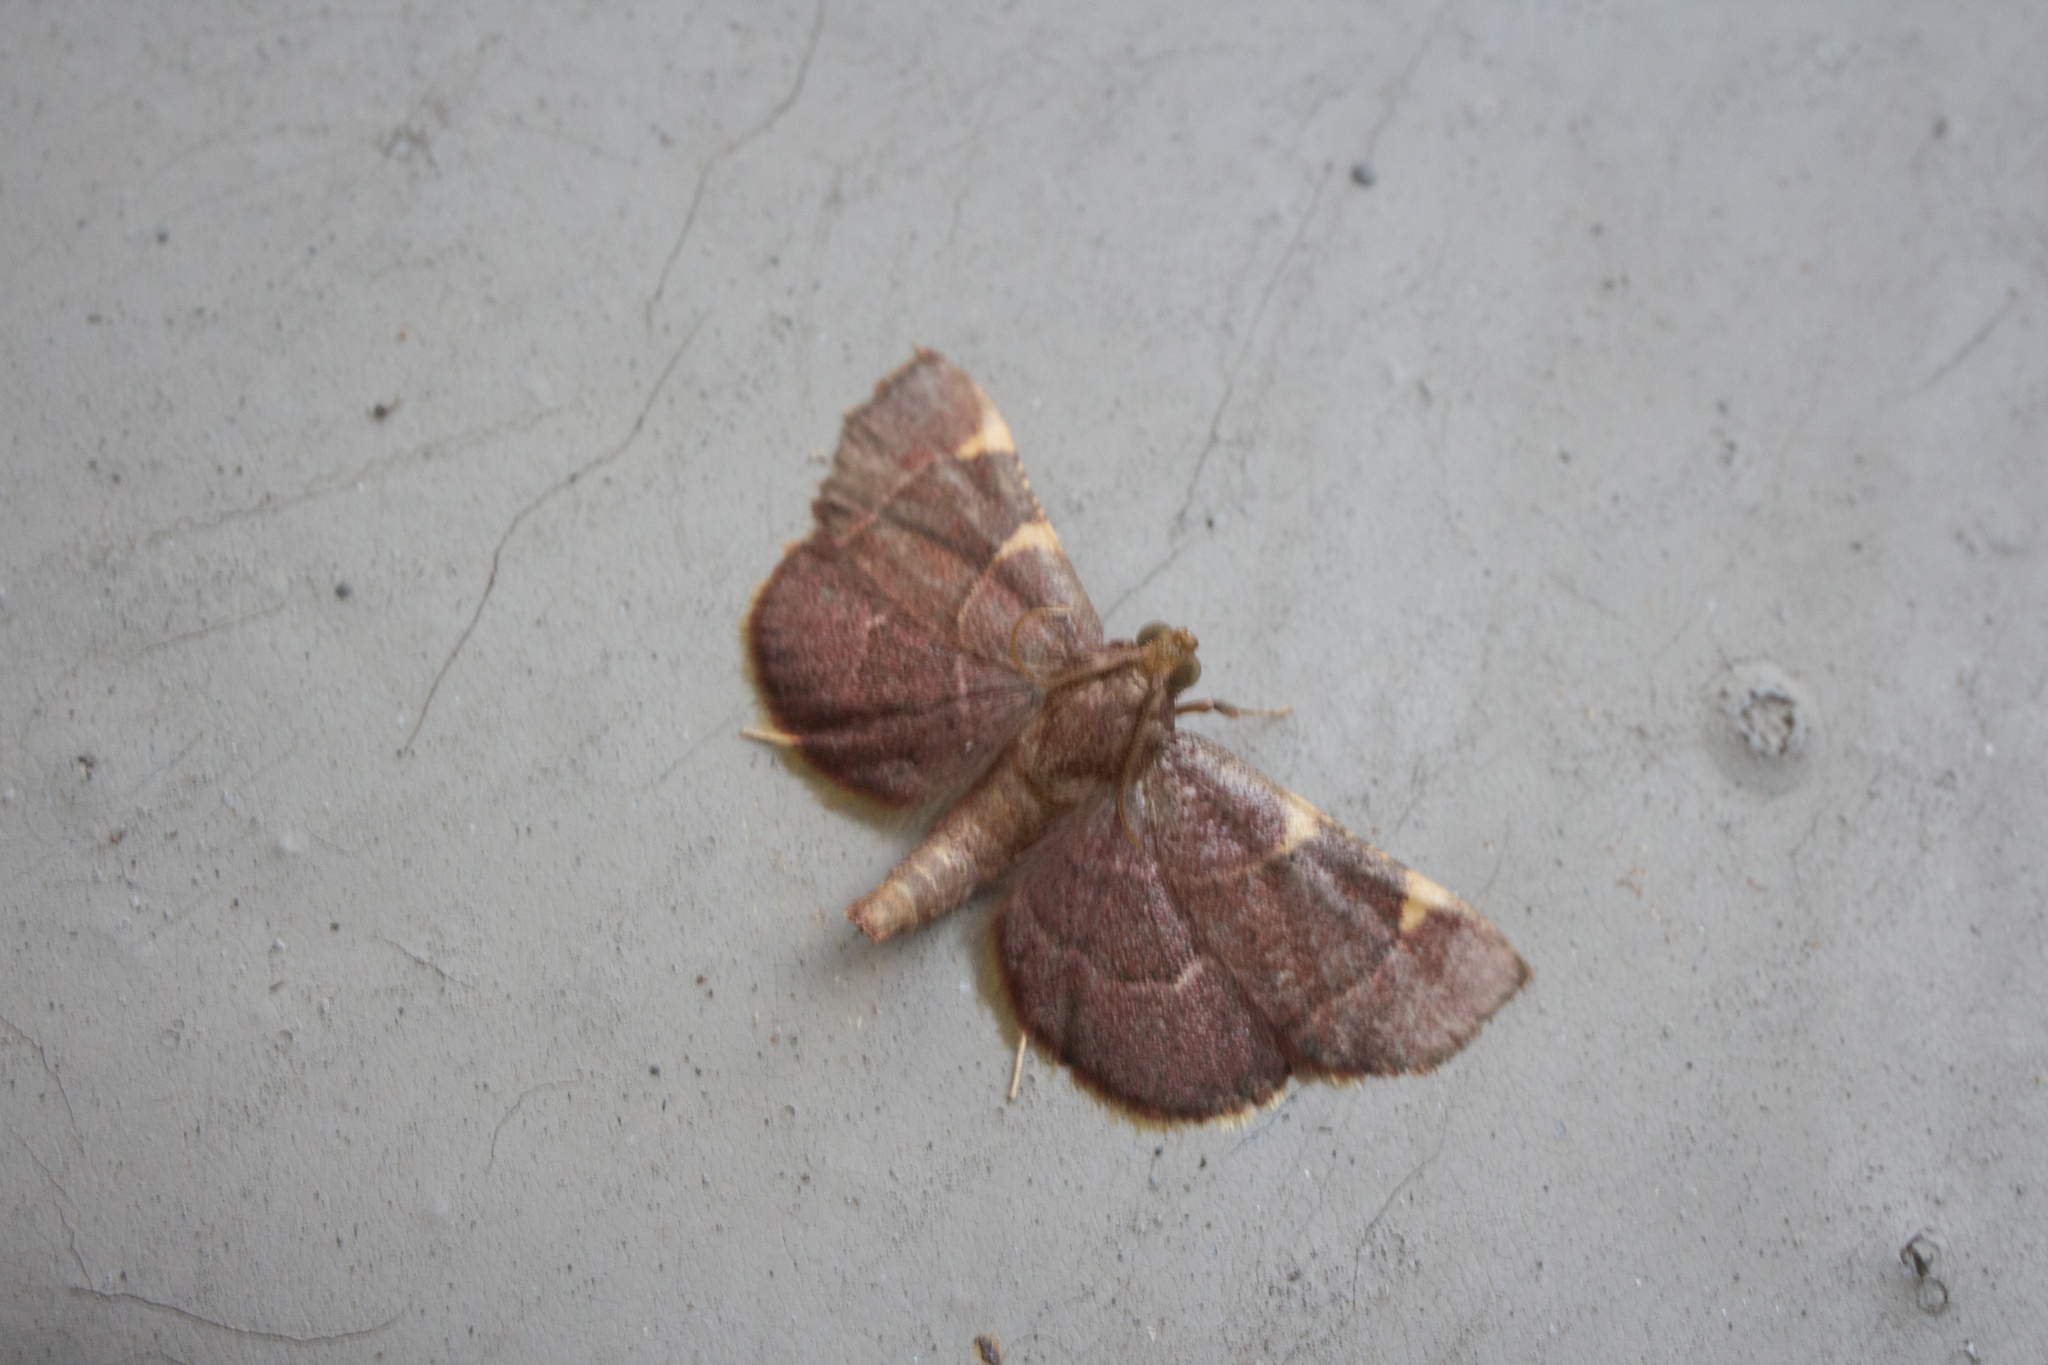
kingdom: Animalia
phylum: Arthropoda
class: Insecta
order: Lepidoptera
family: Pyralidae
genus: Hypsopygia
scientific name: Hypsopygia olinalis
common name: Yellow-fringed dolichomia moth
